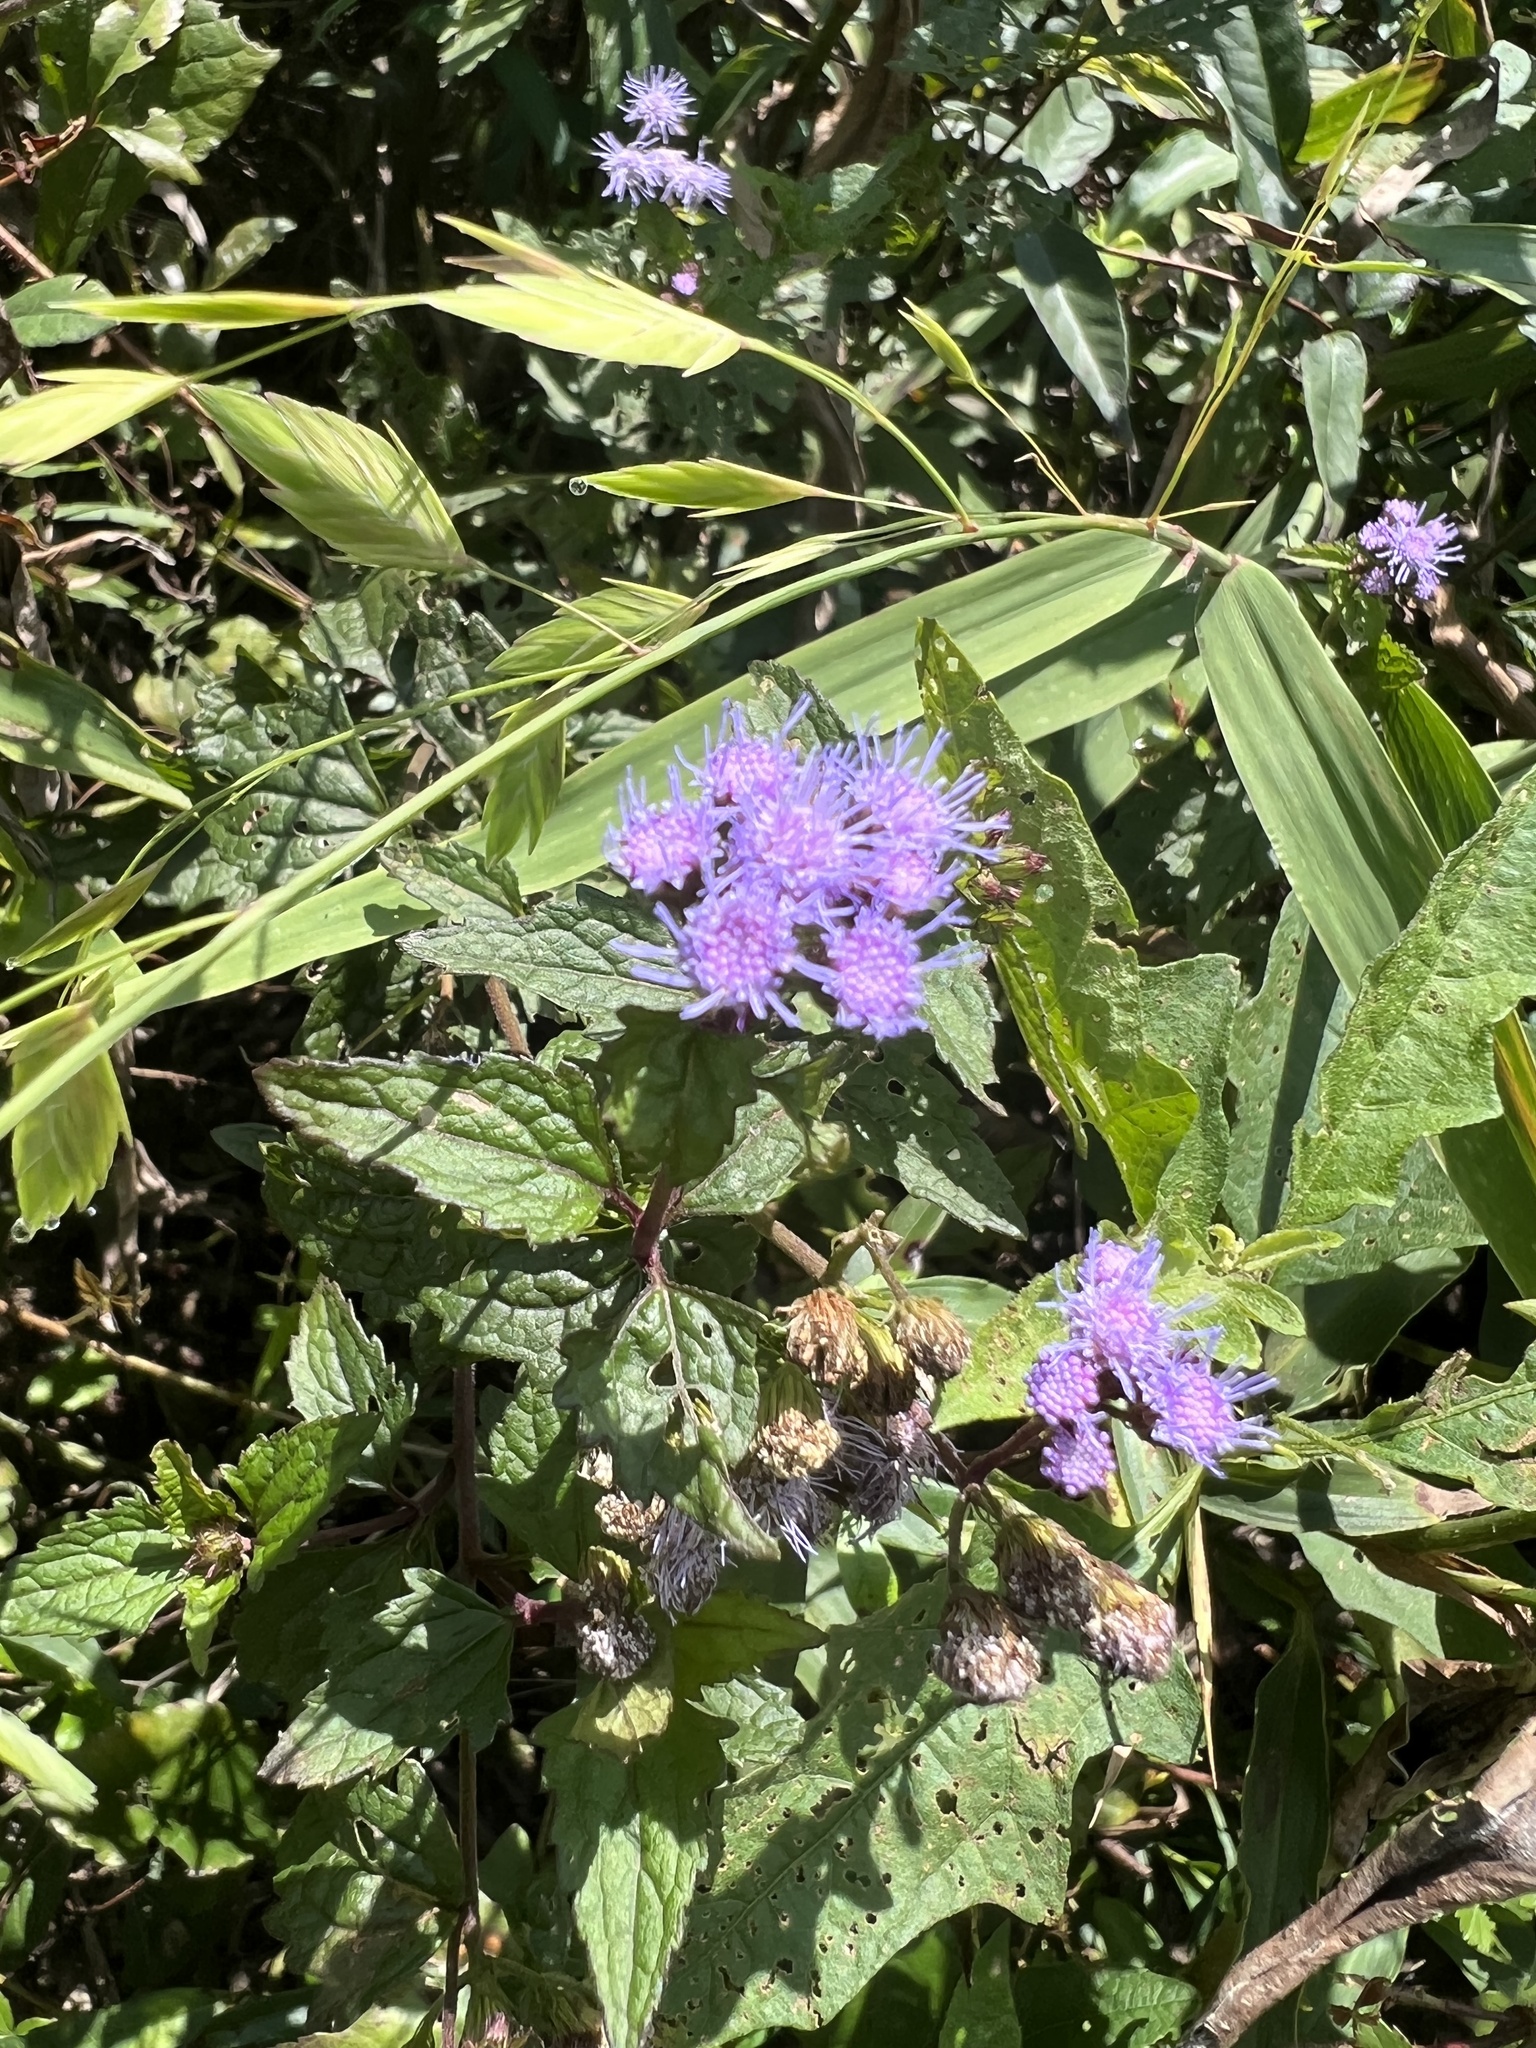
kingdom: Plantae
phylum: Tracheophyta
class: Magnoliopsida
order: Asterales
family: Asteraceae
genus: Conoclinium
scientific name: Conoclinium coelestinum
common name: Blue mistflower
